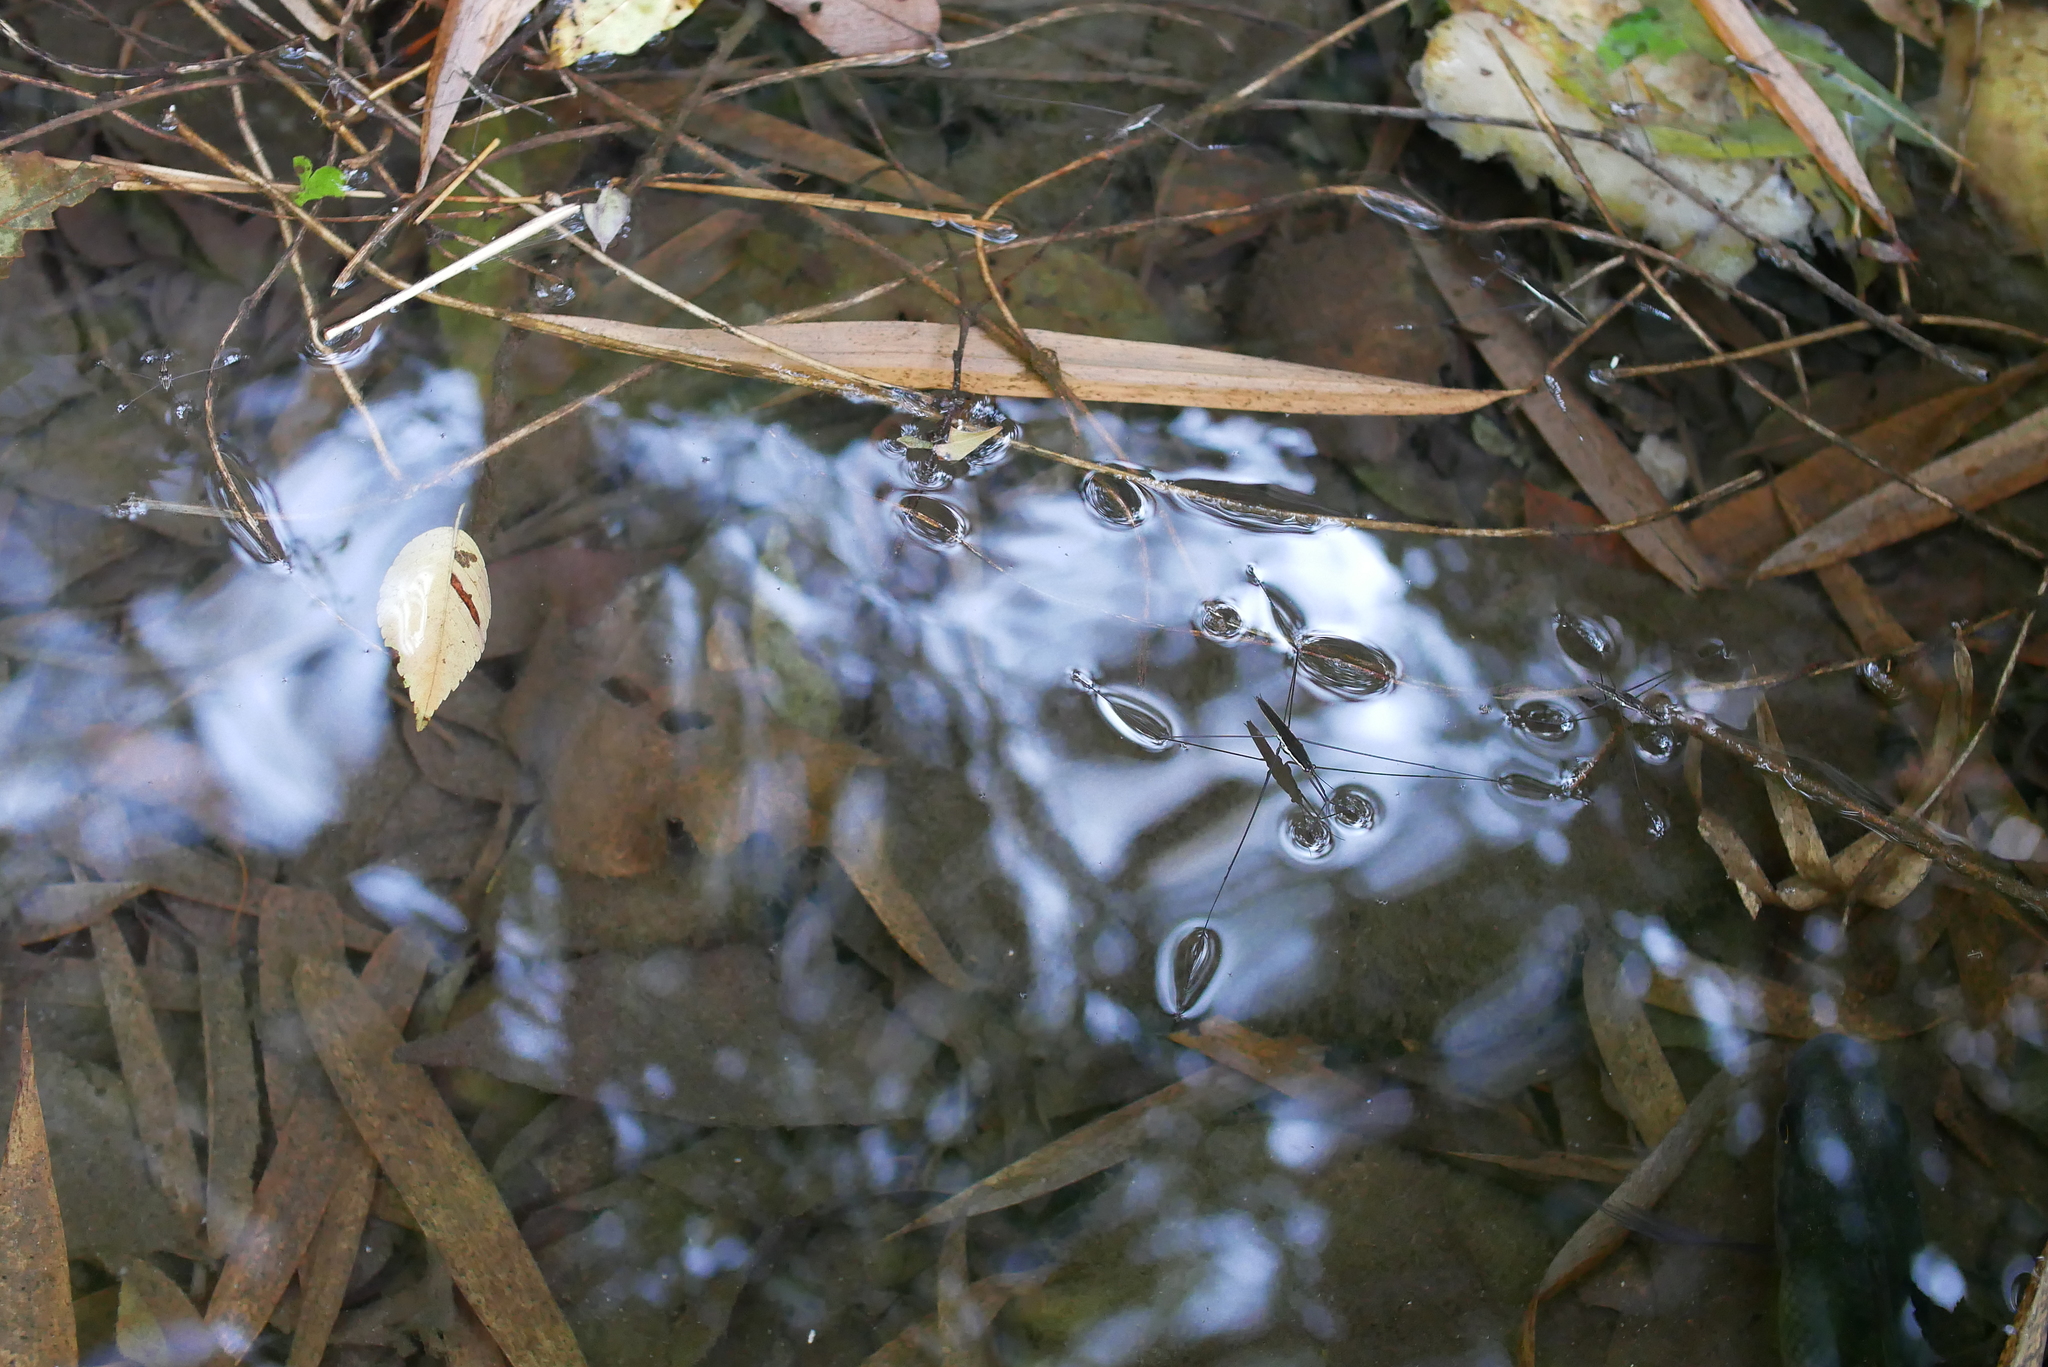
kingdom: Animalia
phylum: Arthropoda
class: Insecta
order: Hemiptera
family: Gerridae
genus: Aquarius
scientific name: Aquarius elongatus
